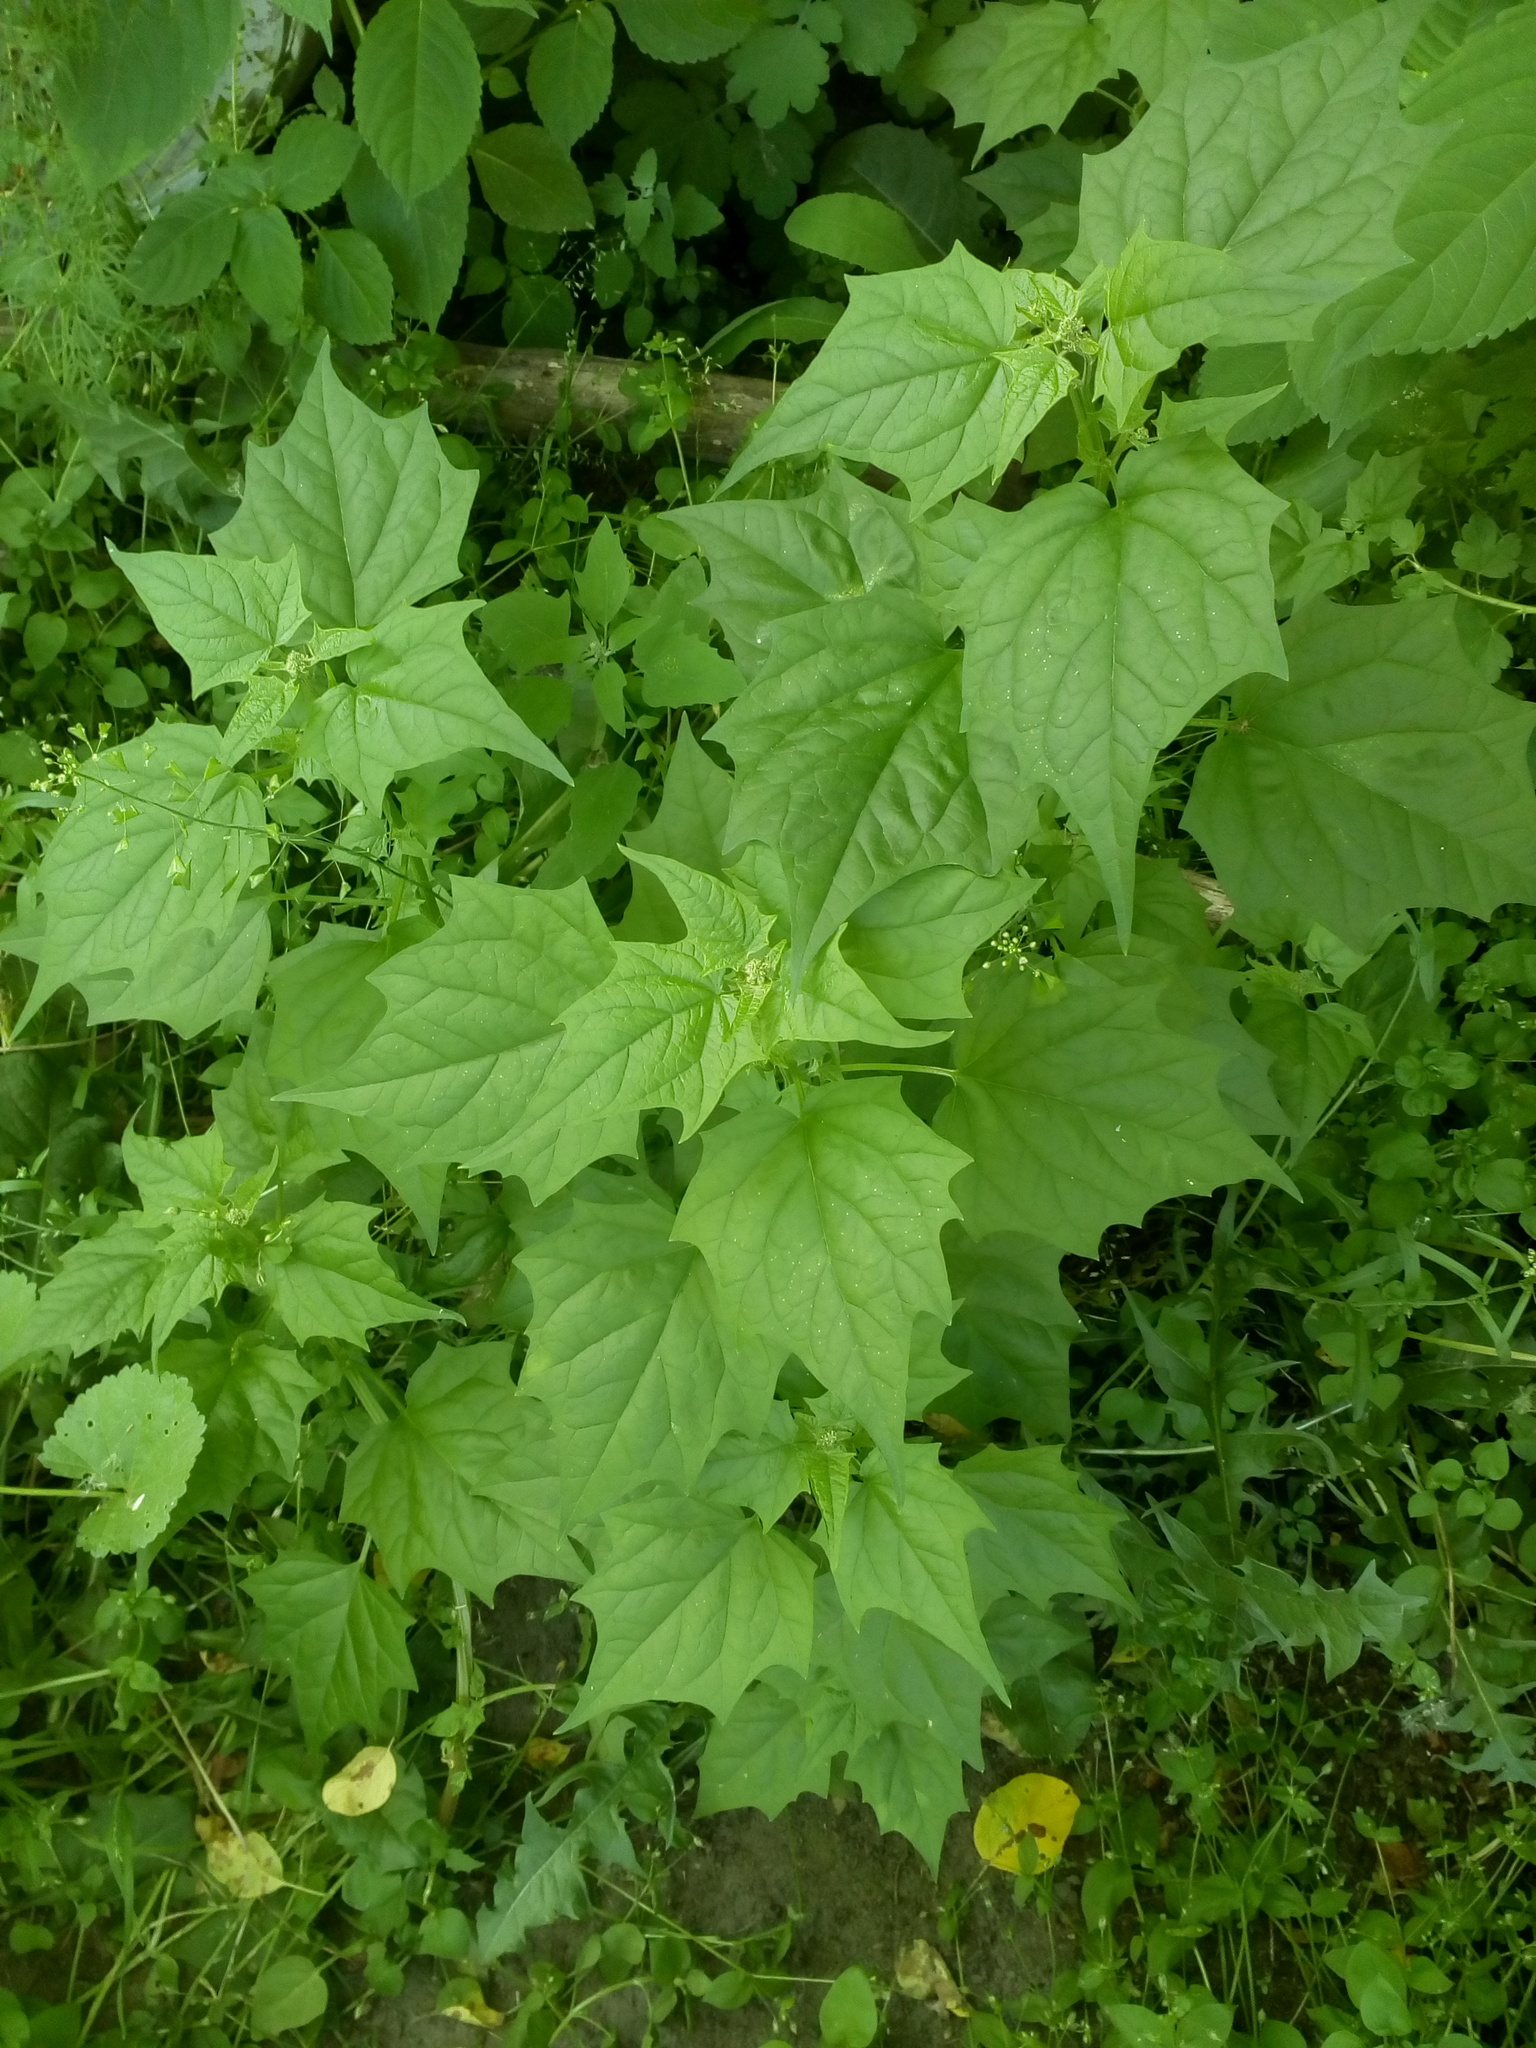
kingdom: Plantae
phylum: Tracheophyta
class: Magnoliopsida
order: Caryophyllales
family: Amaranthaceae
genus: Chenopodiastrum
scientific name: Chenopodiastrum hybridum
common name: Mapleleaf goosefoot
